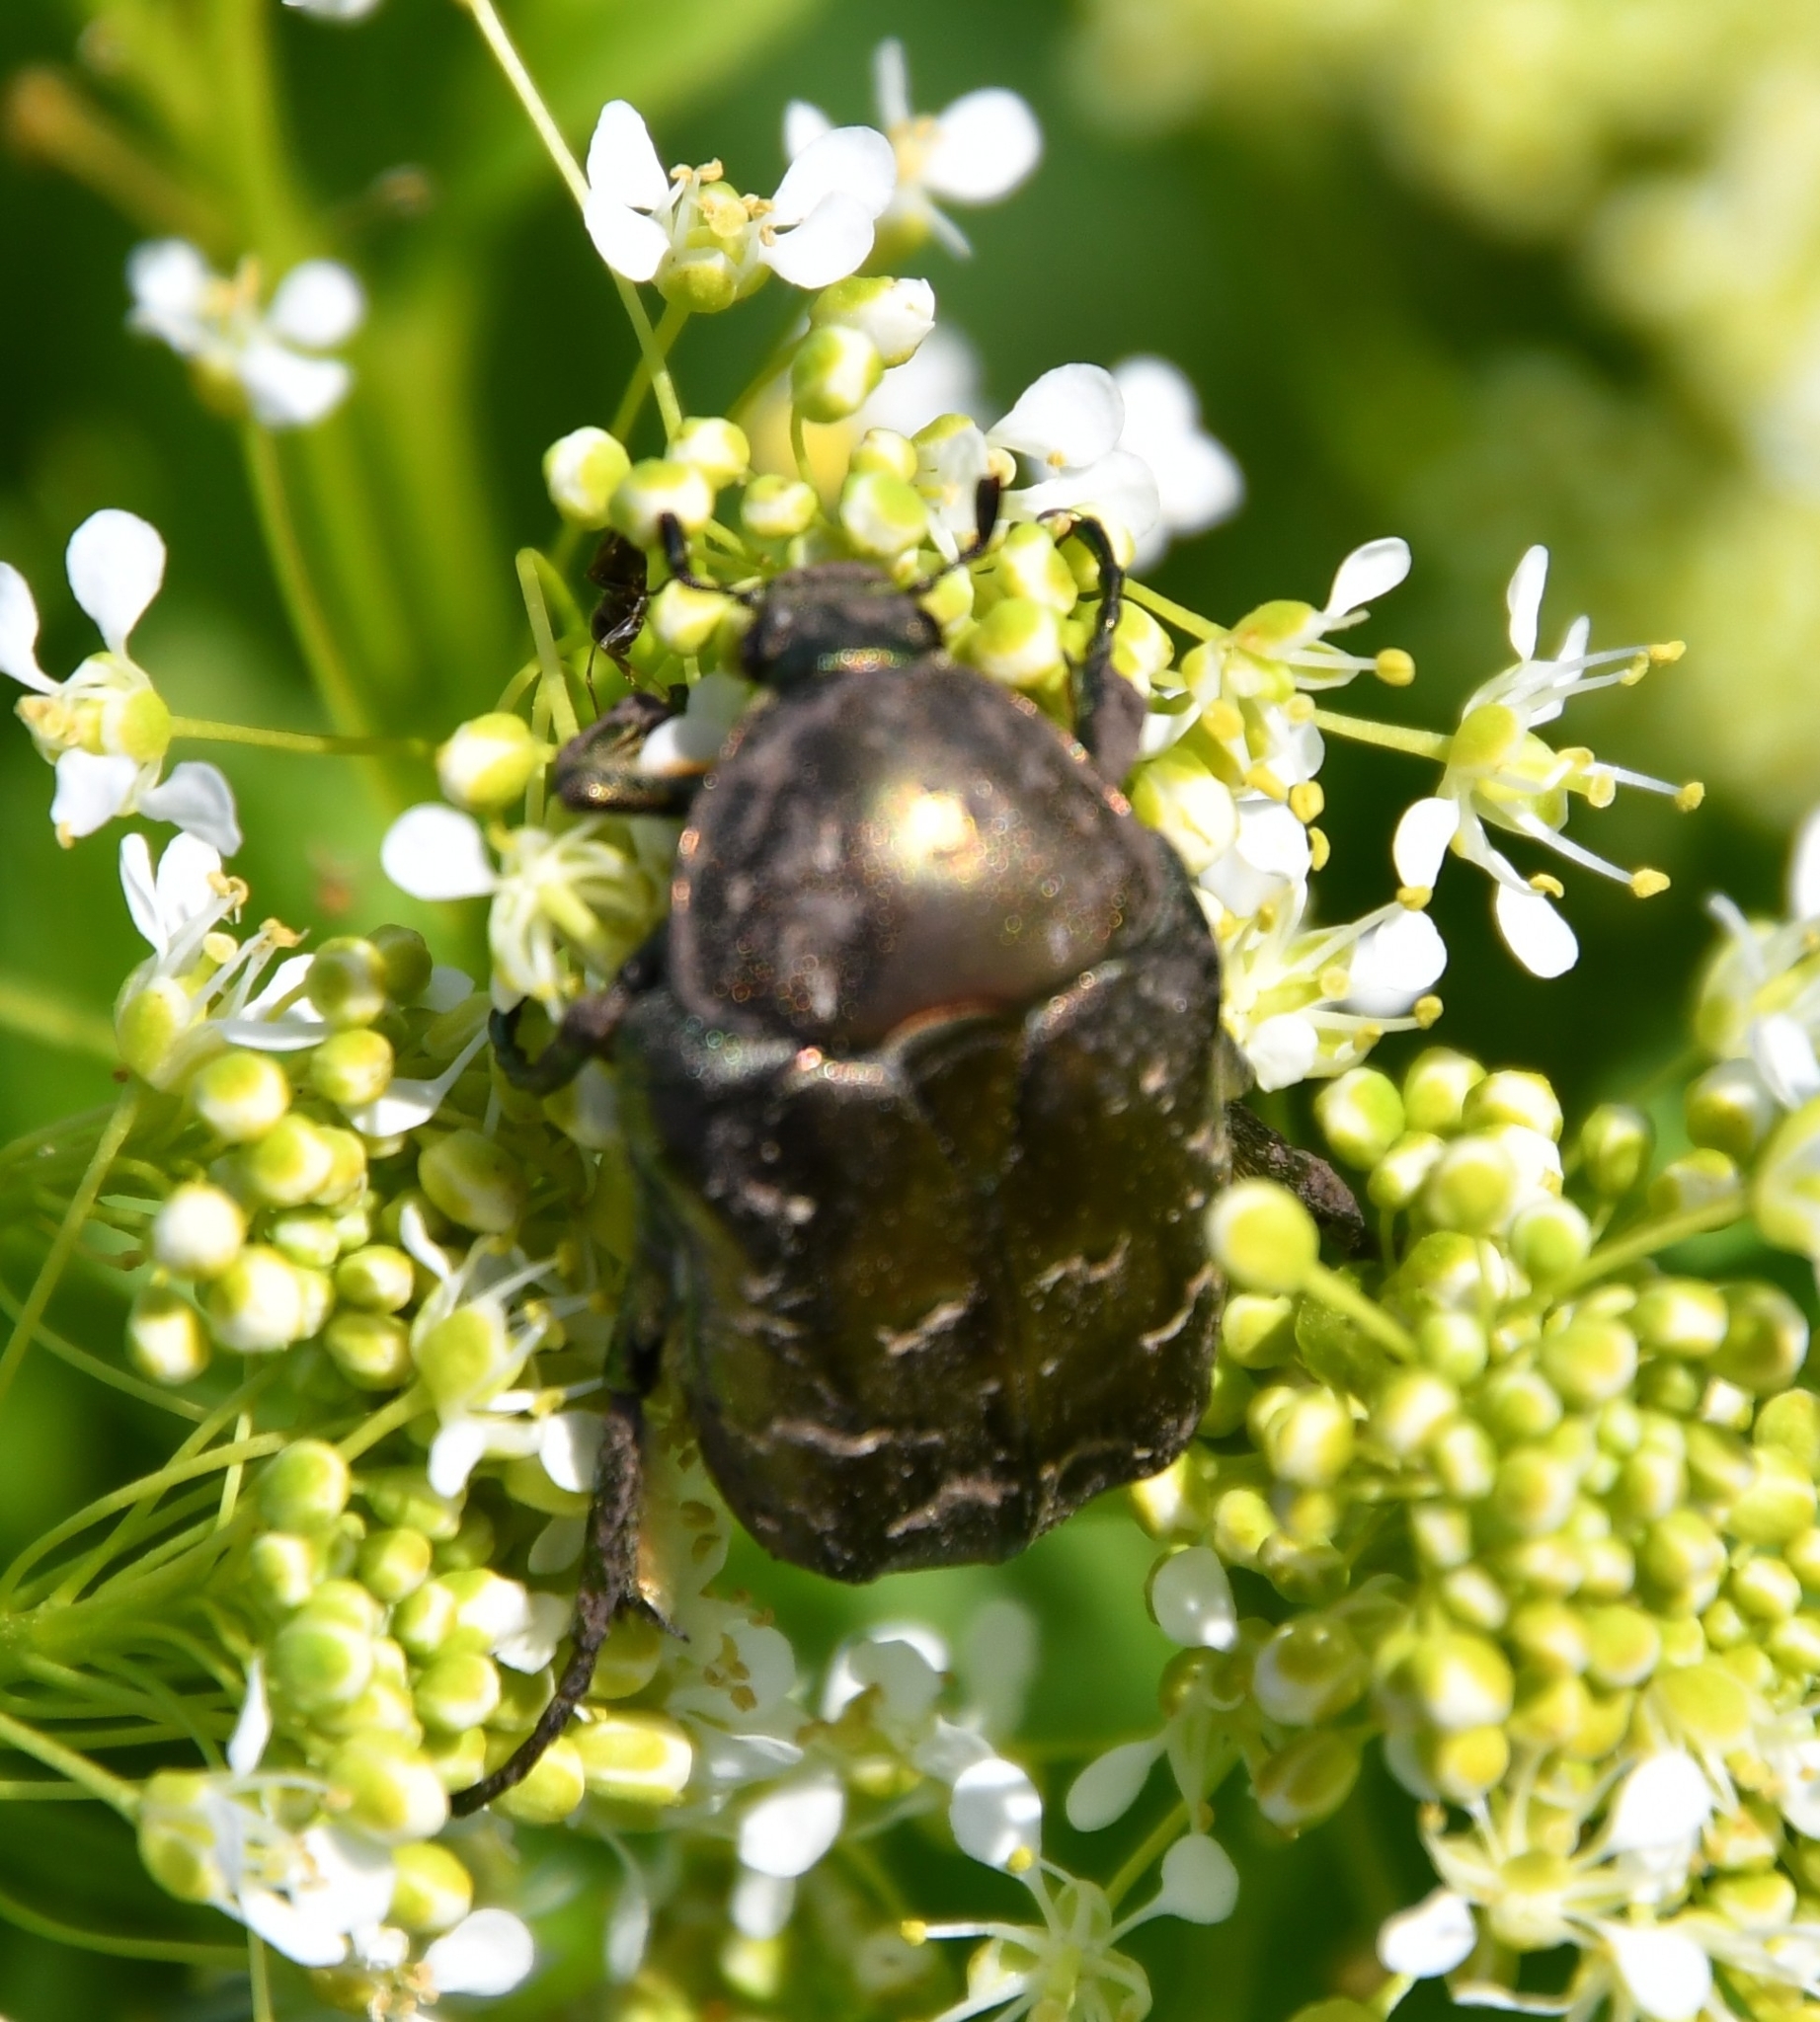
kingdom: Animalia
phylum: Arthropoda
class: Insecta
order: Coleoptera
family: Scarabaeidae
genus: Protaetia
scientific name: Protaetia cuprea
